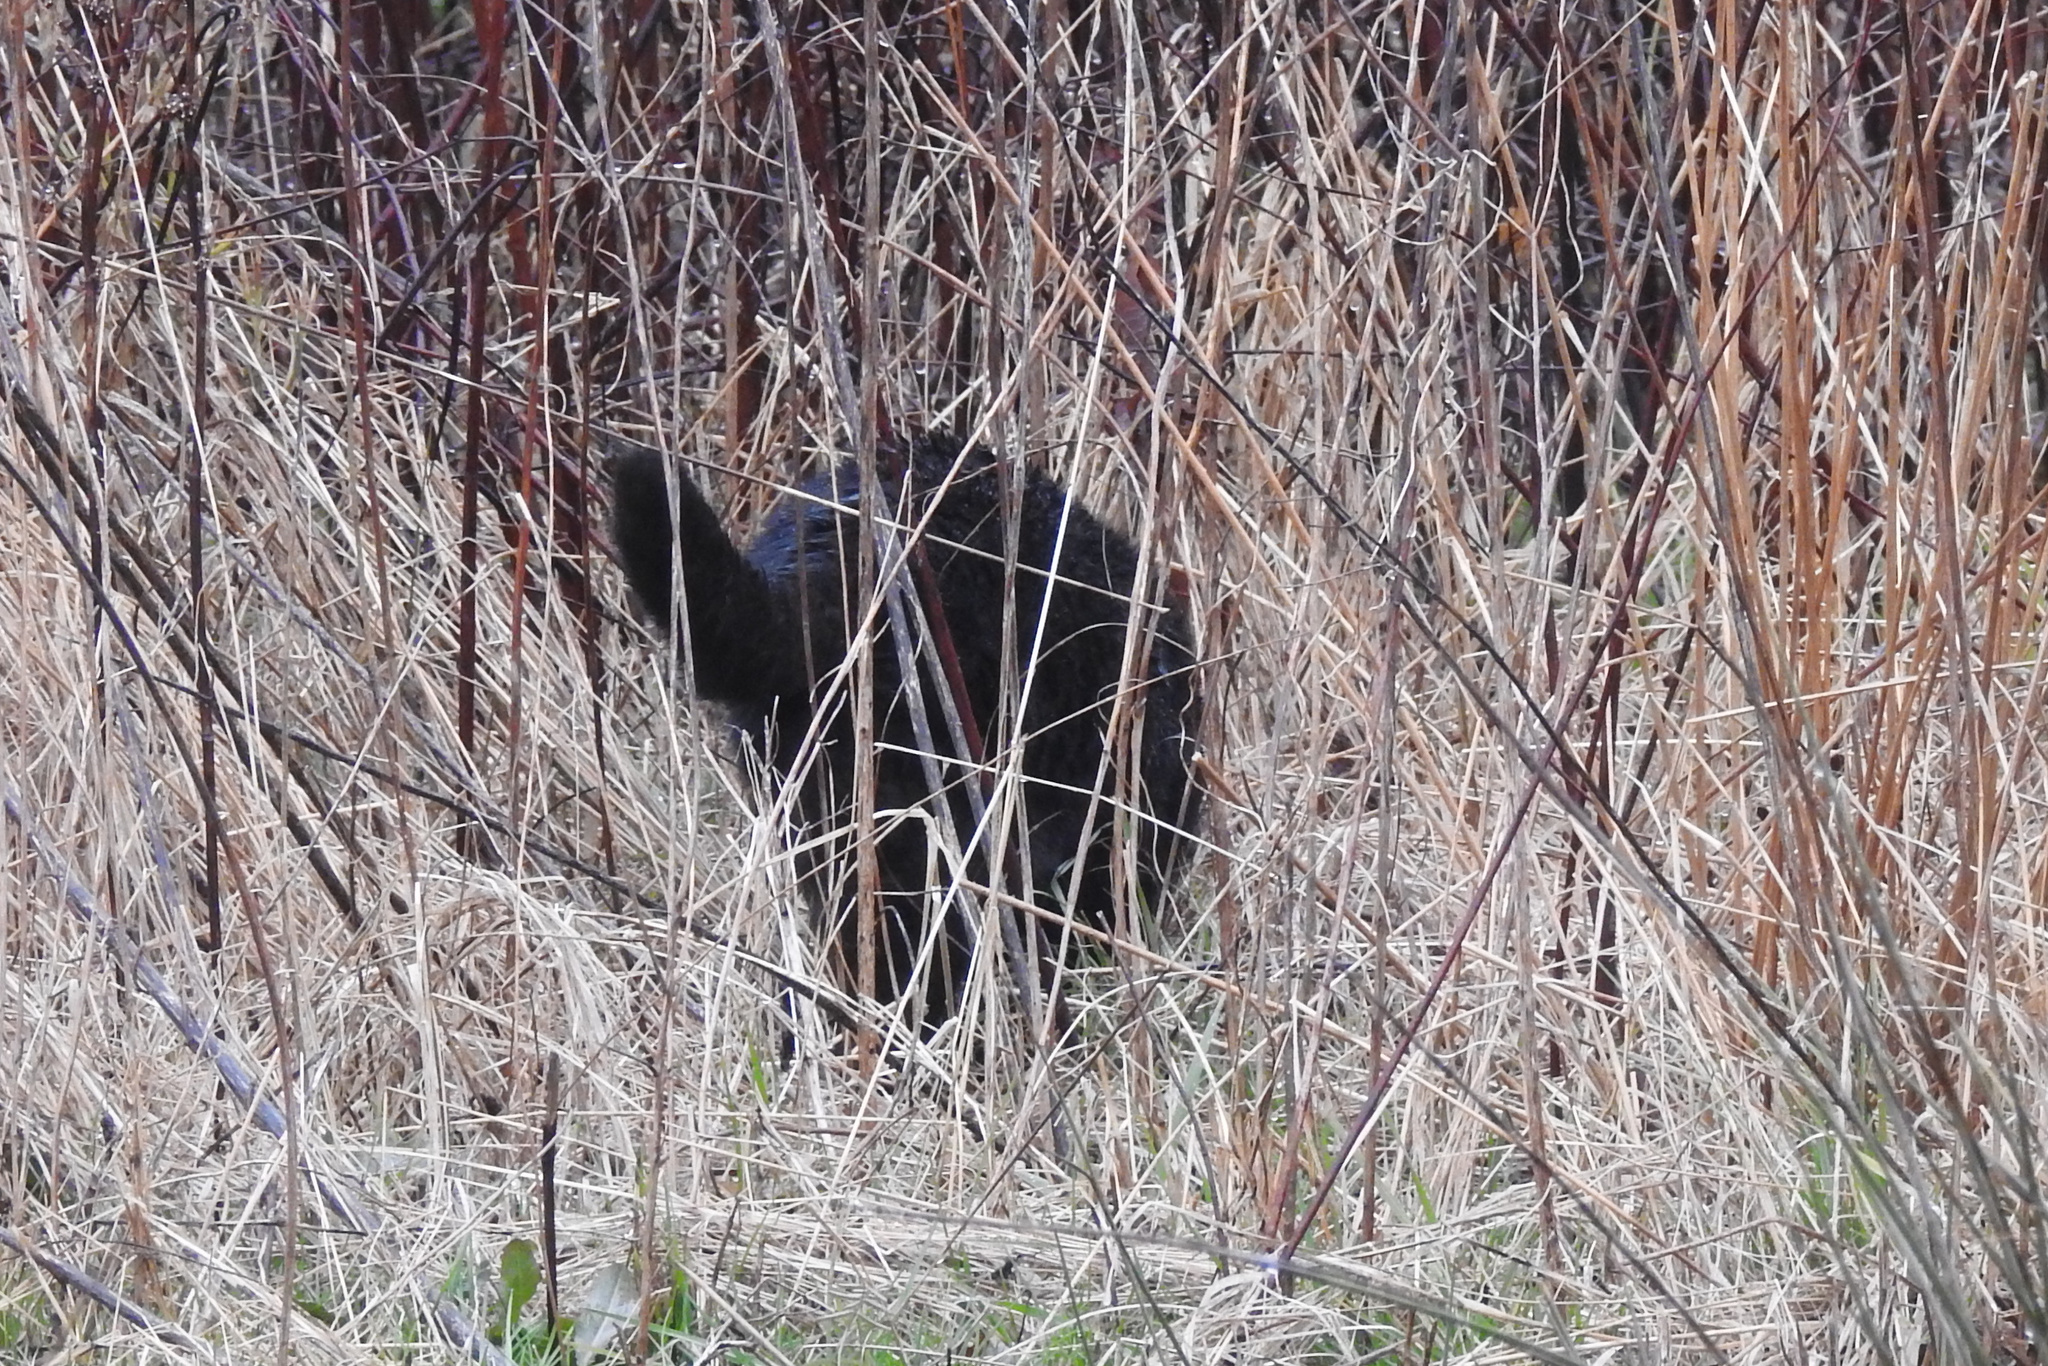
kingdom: Animalia
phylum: Chordata
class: Mammalia
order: Carnivora
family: Felidae
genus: Felis
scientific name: Felis catus
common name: Domestic cat
